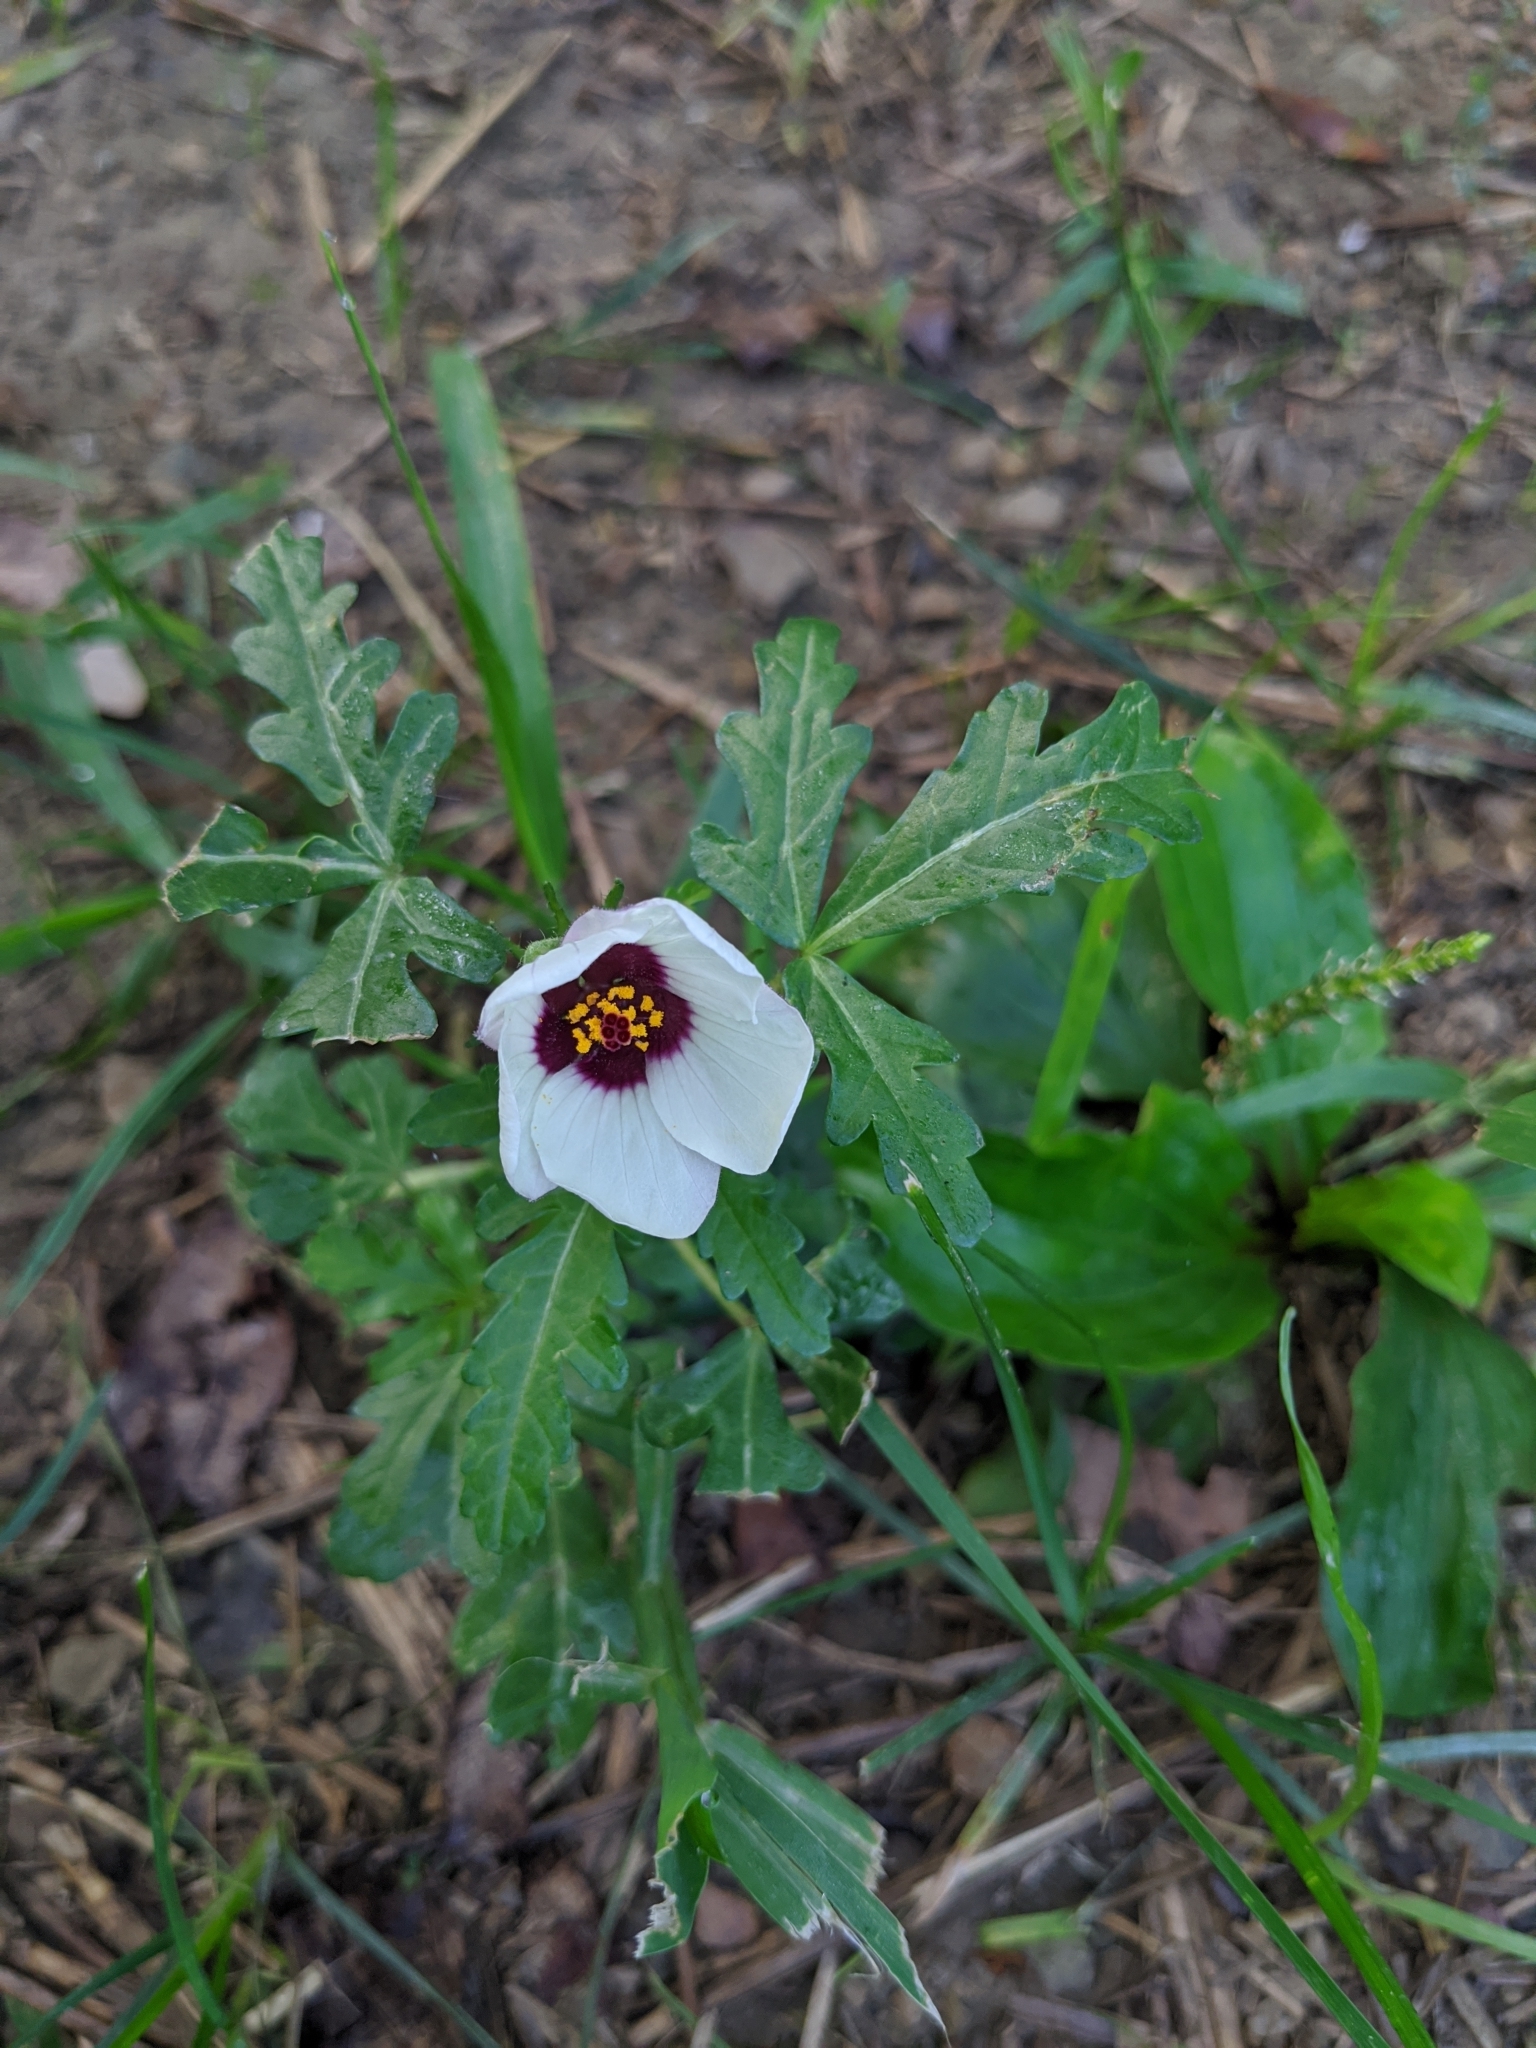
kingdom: Plantae
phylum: Tracheophyta
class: Magnoliopsida
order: Malvales
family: Malvaceae
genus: Hibiscus
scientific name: Hibiscus trionum
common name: Bladder ketmia
